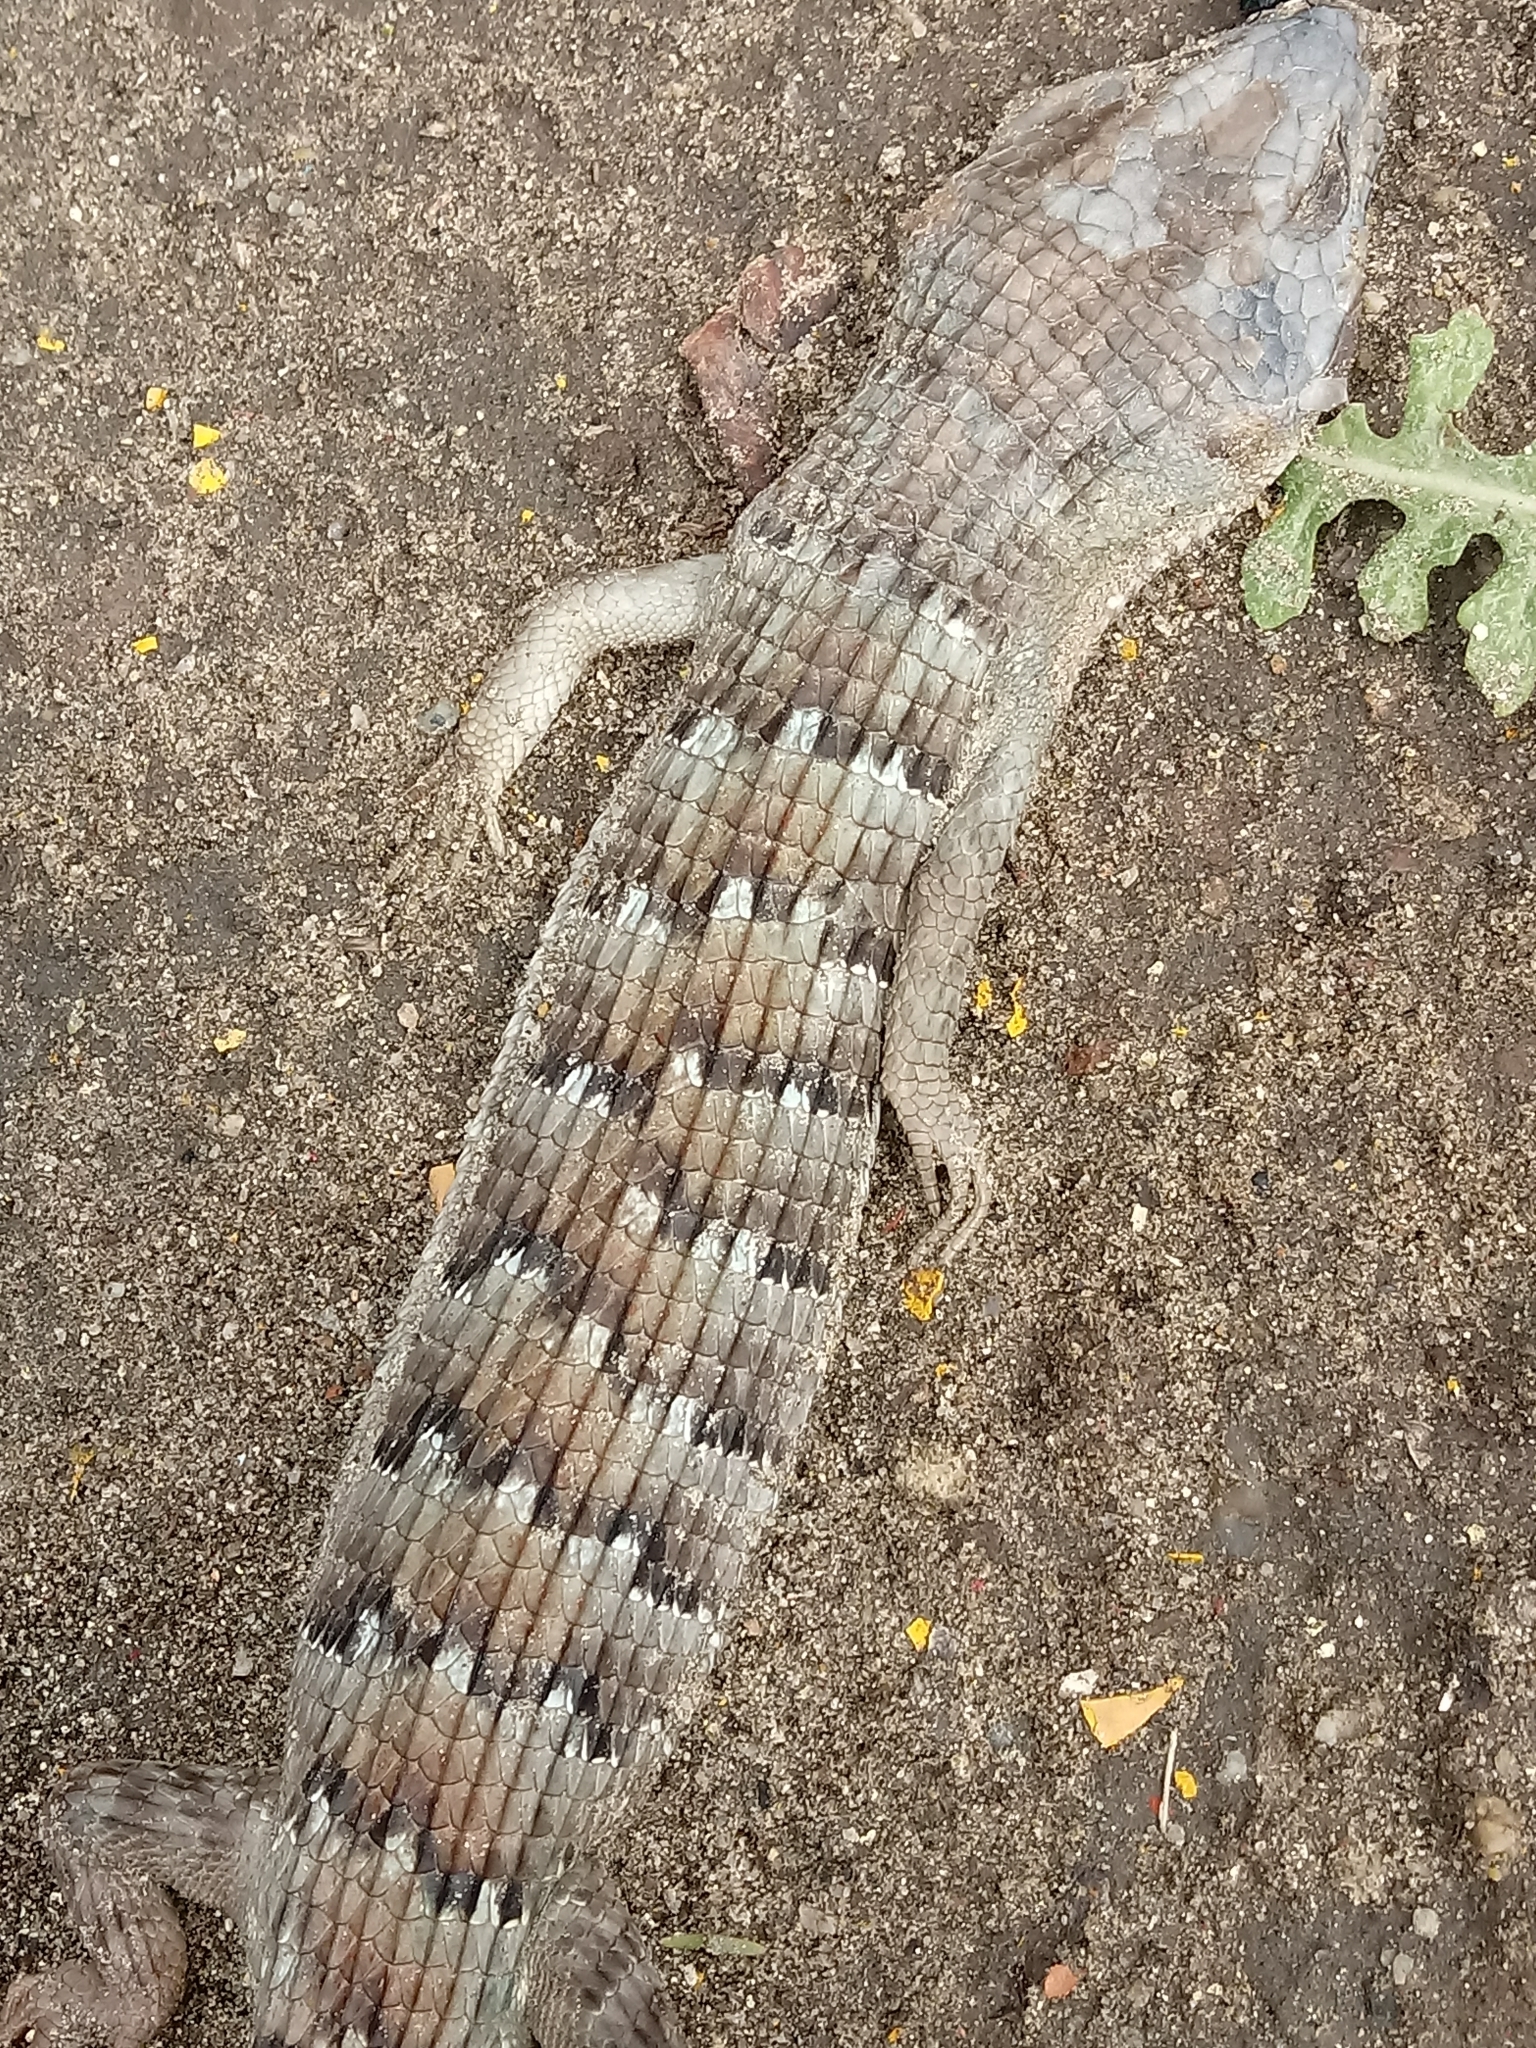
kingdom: Animalia
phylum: Chordata
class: Squamata
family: Anguidae
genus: Elgaria
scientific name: Elgaria multicarinata
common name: Southern alligator lizard
